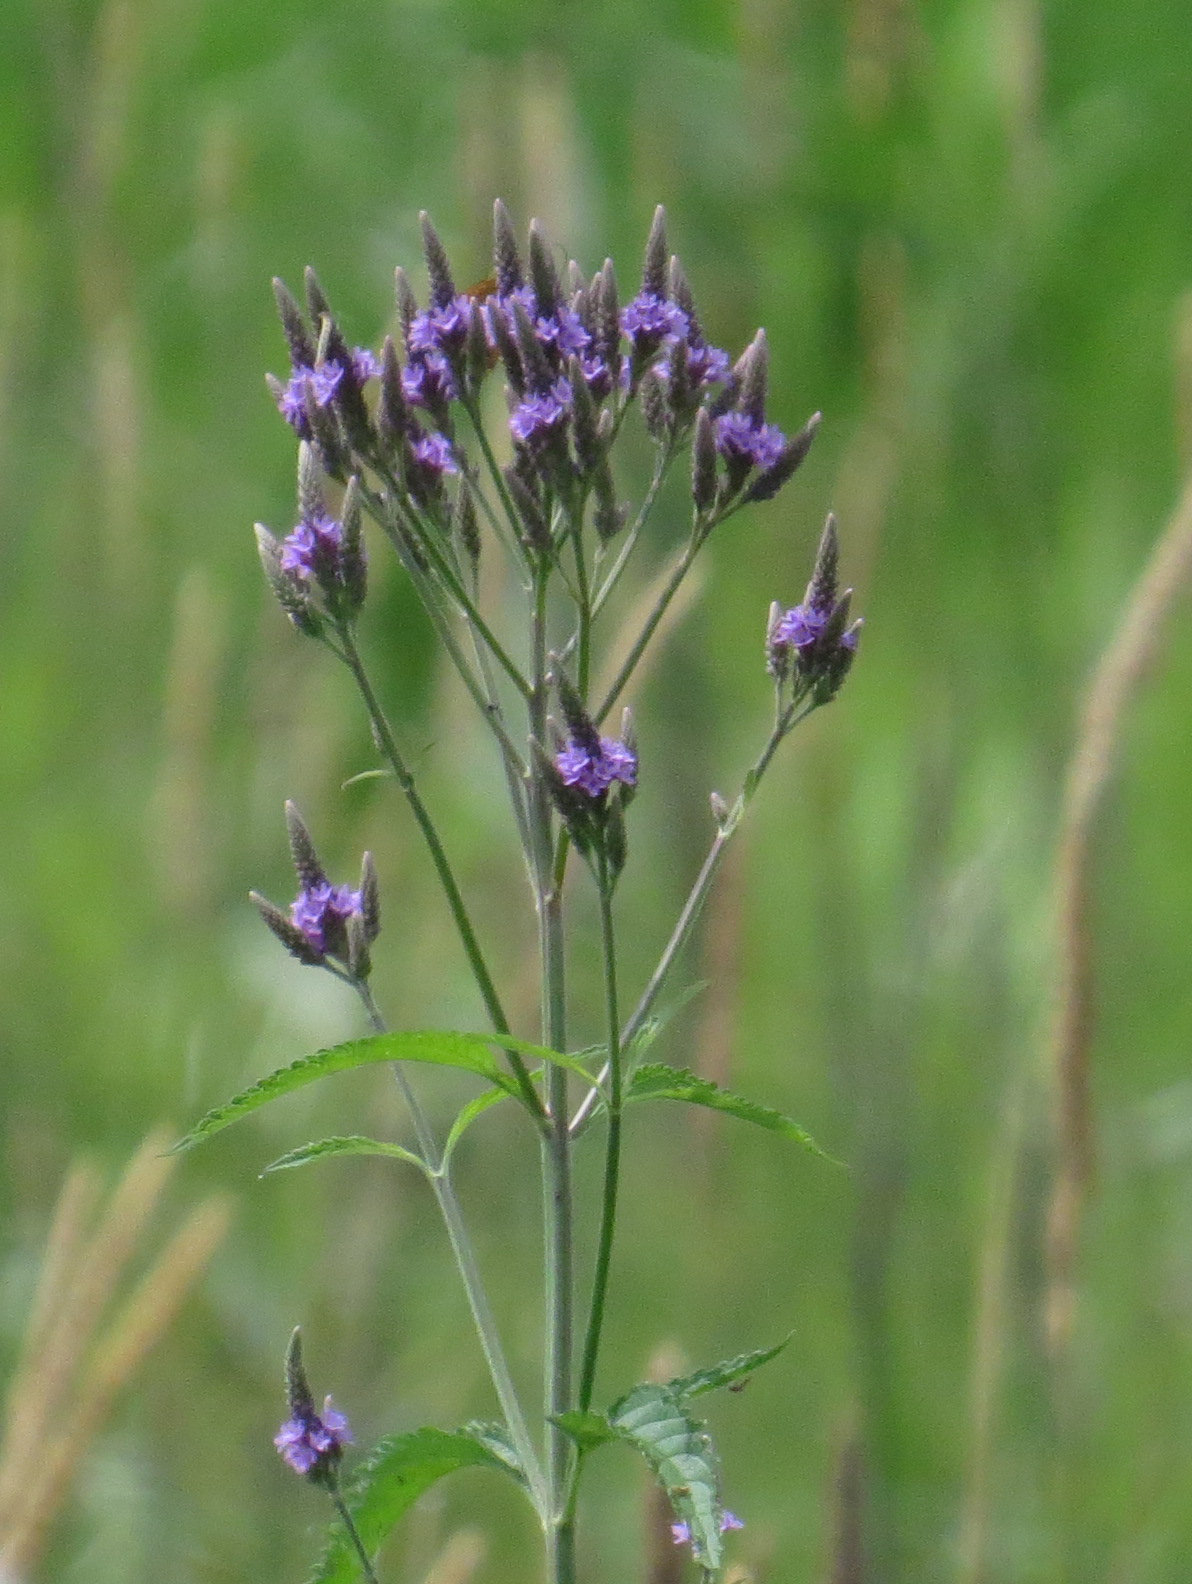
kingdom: Plantae
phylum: Tracheophyta
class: Magnoliopsida
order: Lamiales
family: Verbenaceae
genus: Verbena
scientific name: Verbena hastata
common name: American blue vervain
